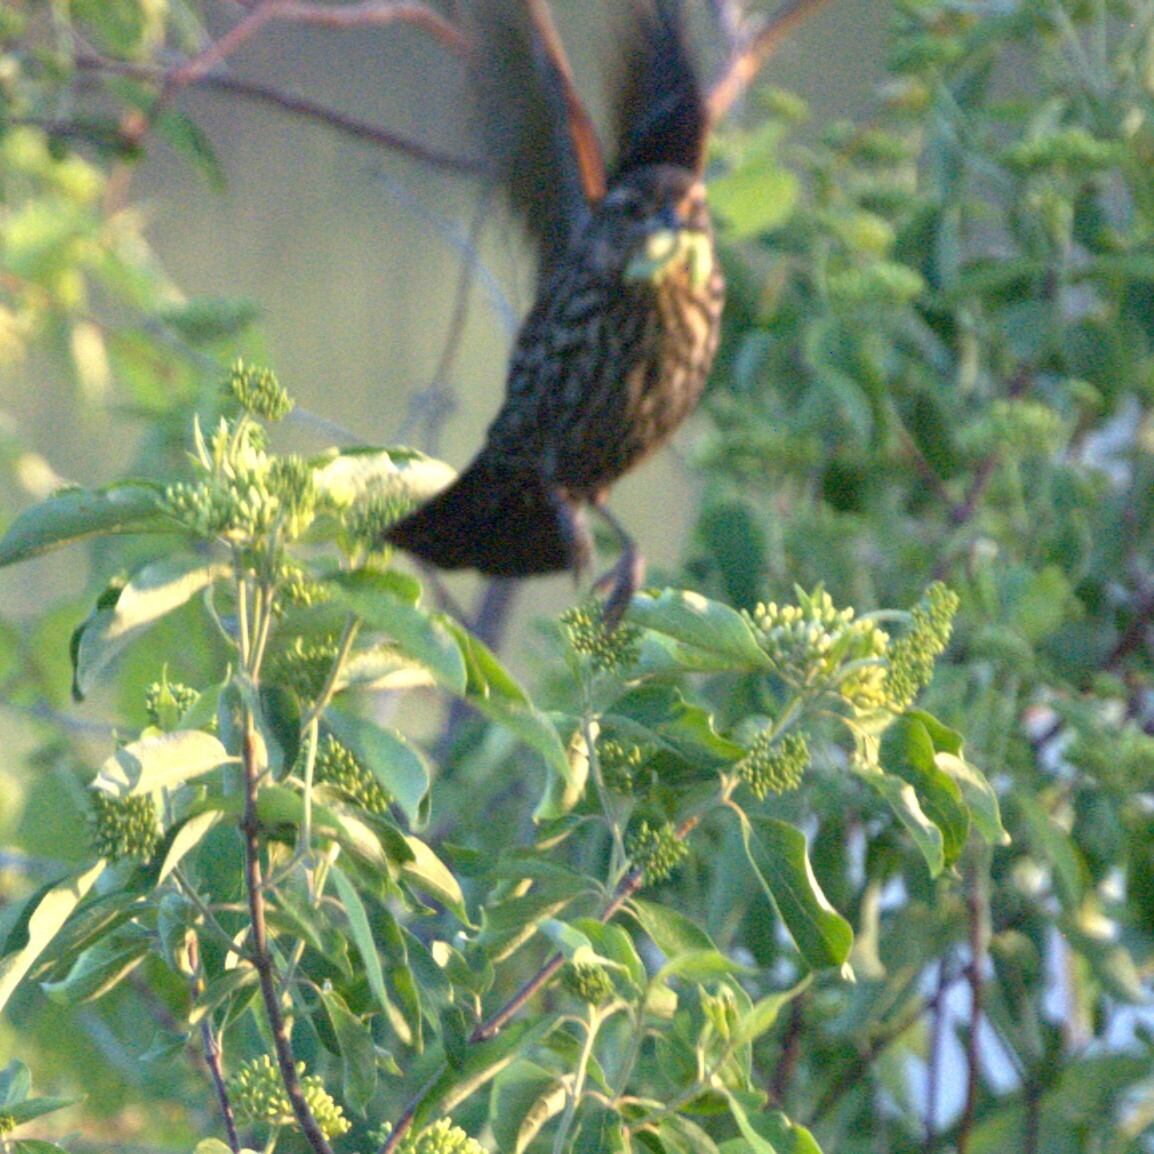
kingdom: Animalia
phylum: Chordata
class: Aves
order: Passeriformes
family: Icteridae
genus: Agelaius
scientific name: Agelaius phoeniceus
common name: Red-winged blackbird
